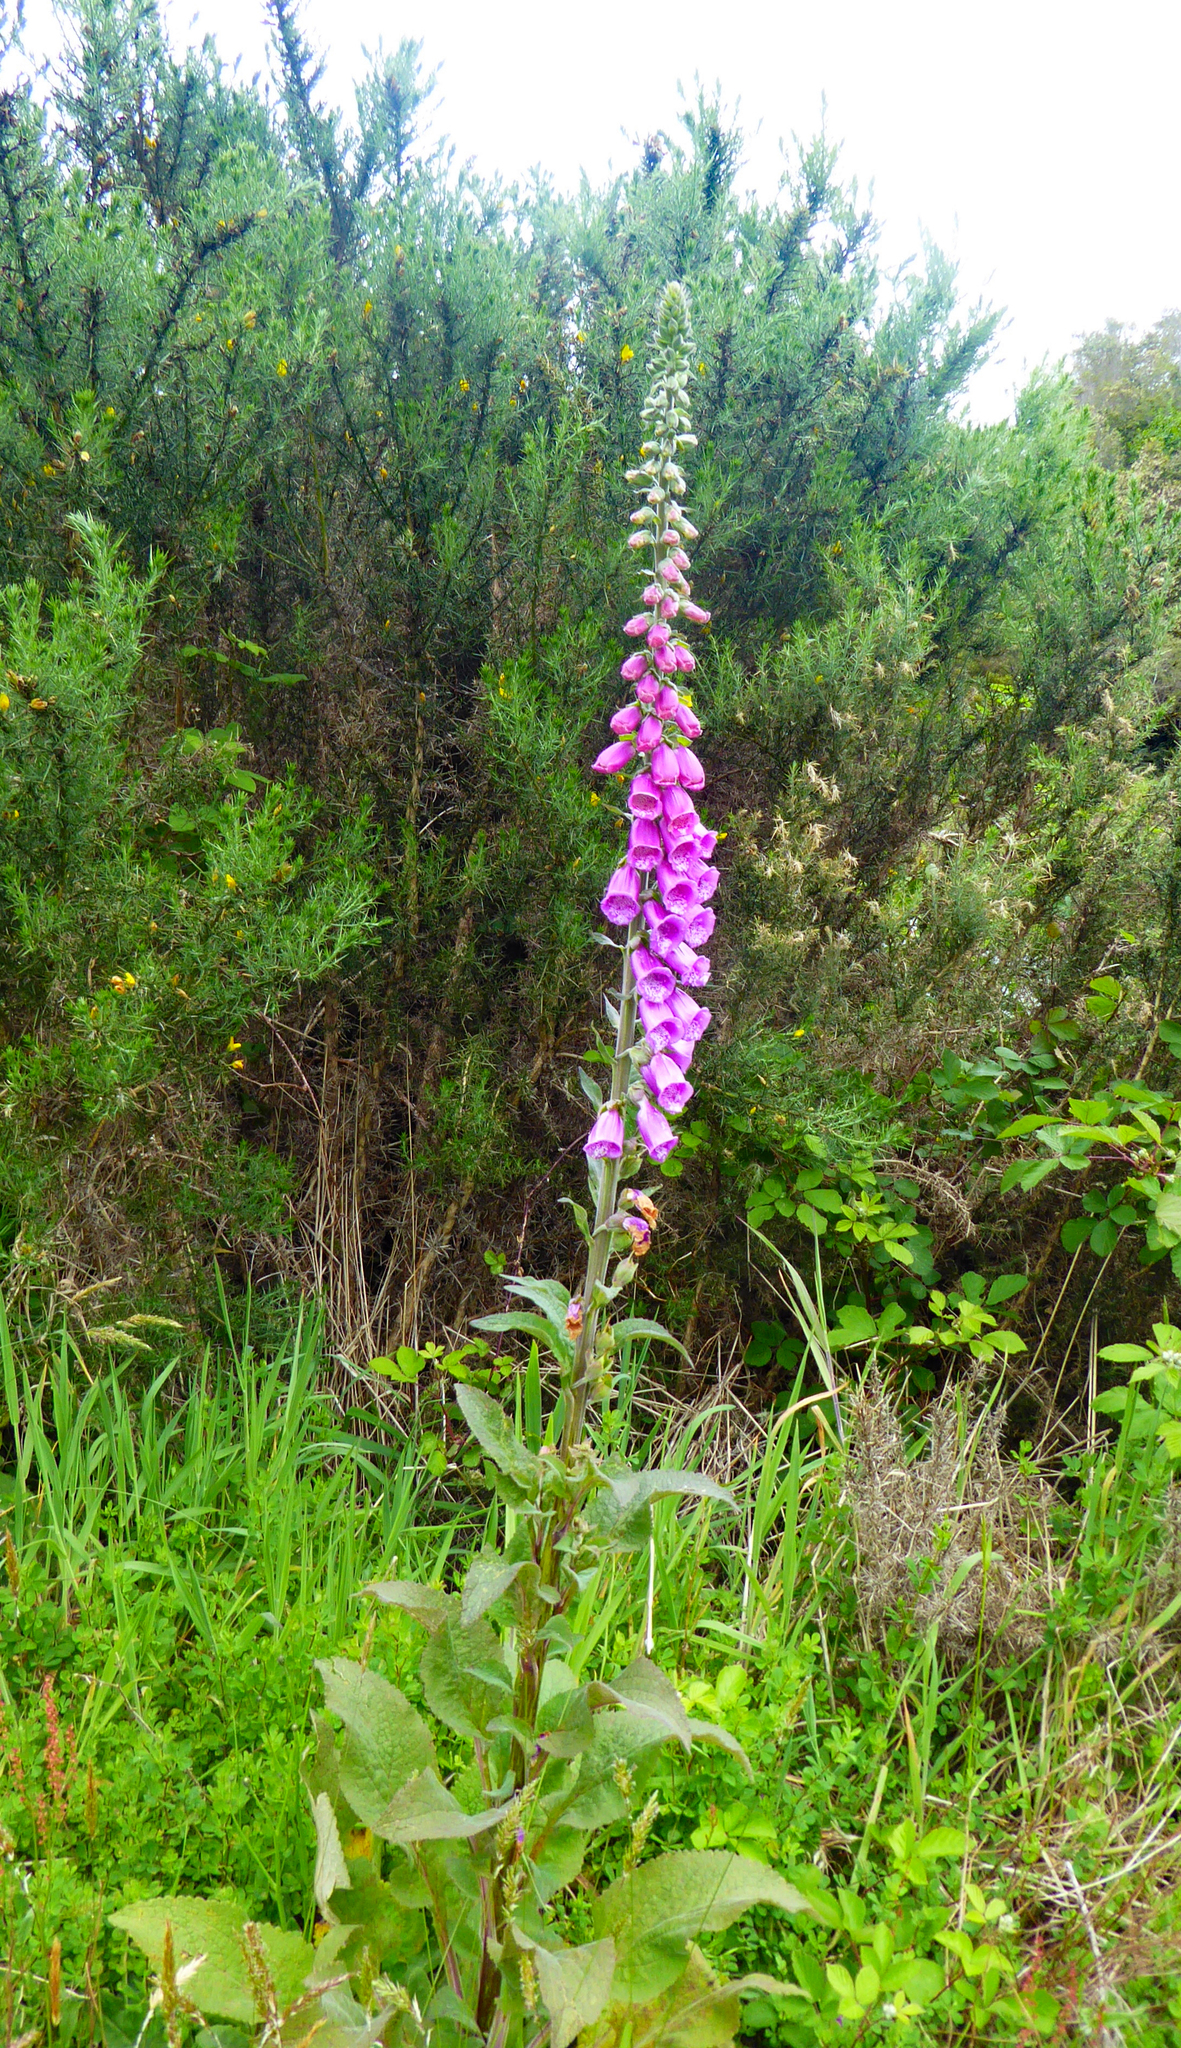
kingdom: Plantae
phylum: Tracheophyta
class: Magnoliopsida
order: Lamiales
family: Plantaginaceae
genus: Digitalis
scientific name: Digitalis purpurea
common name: Foxglove
